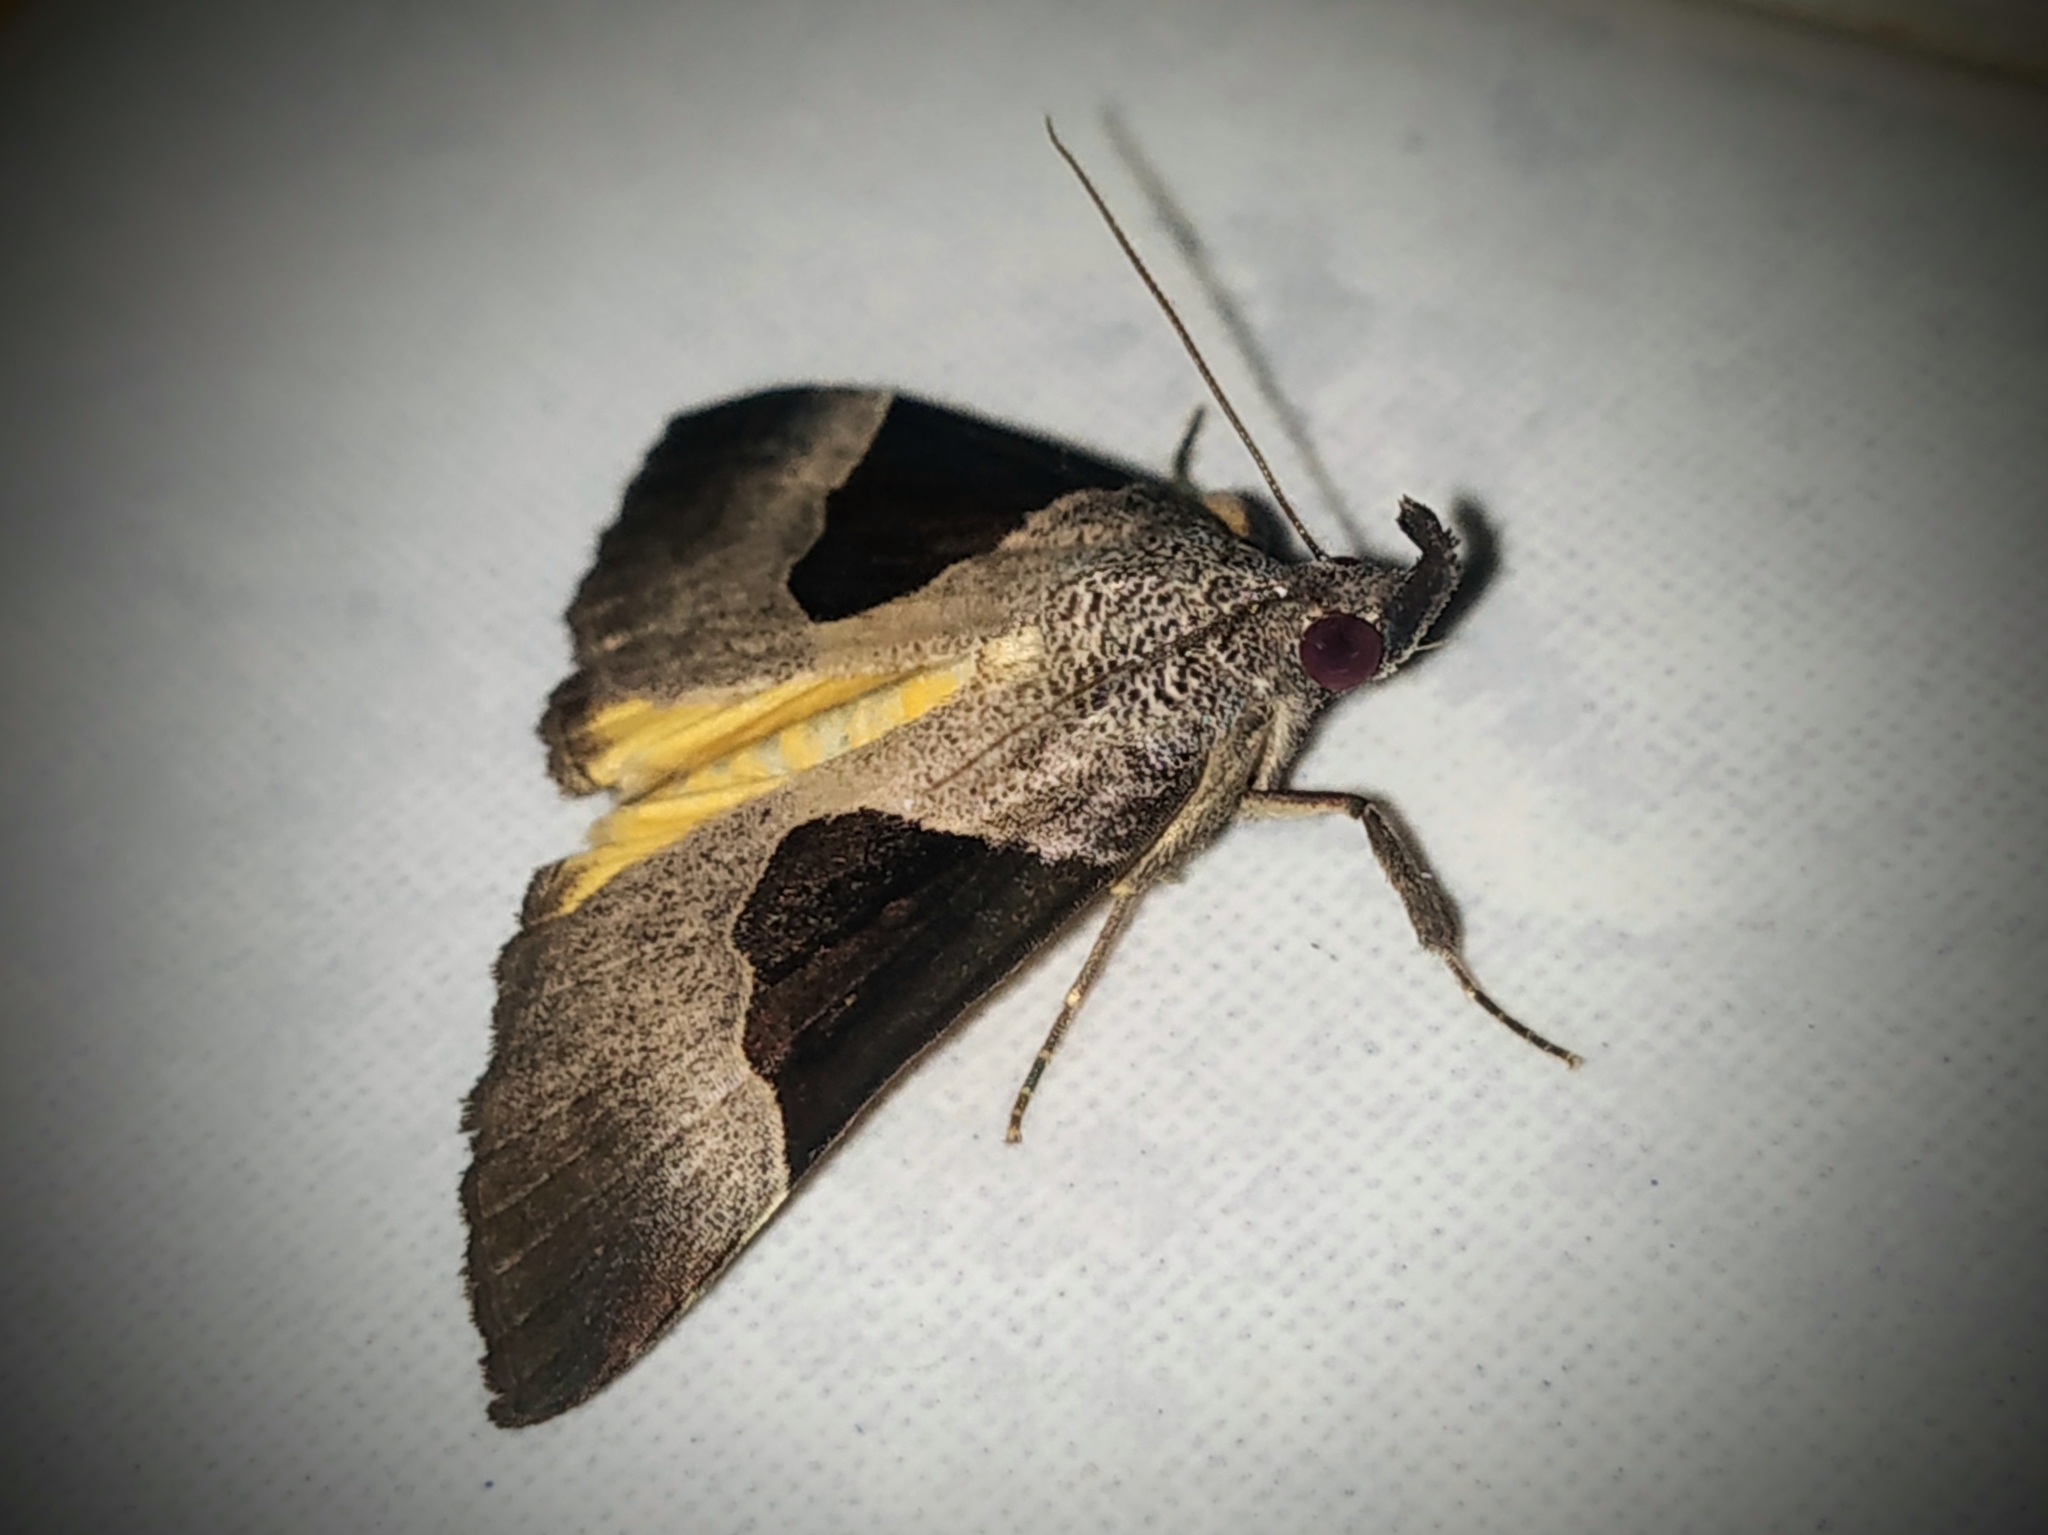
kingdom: Animalia
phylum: Arthropoda
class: Insecta
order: Lepidoptera
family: Erebidae
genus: Hypena
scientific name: Hypena Dichromia sagitta
